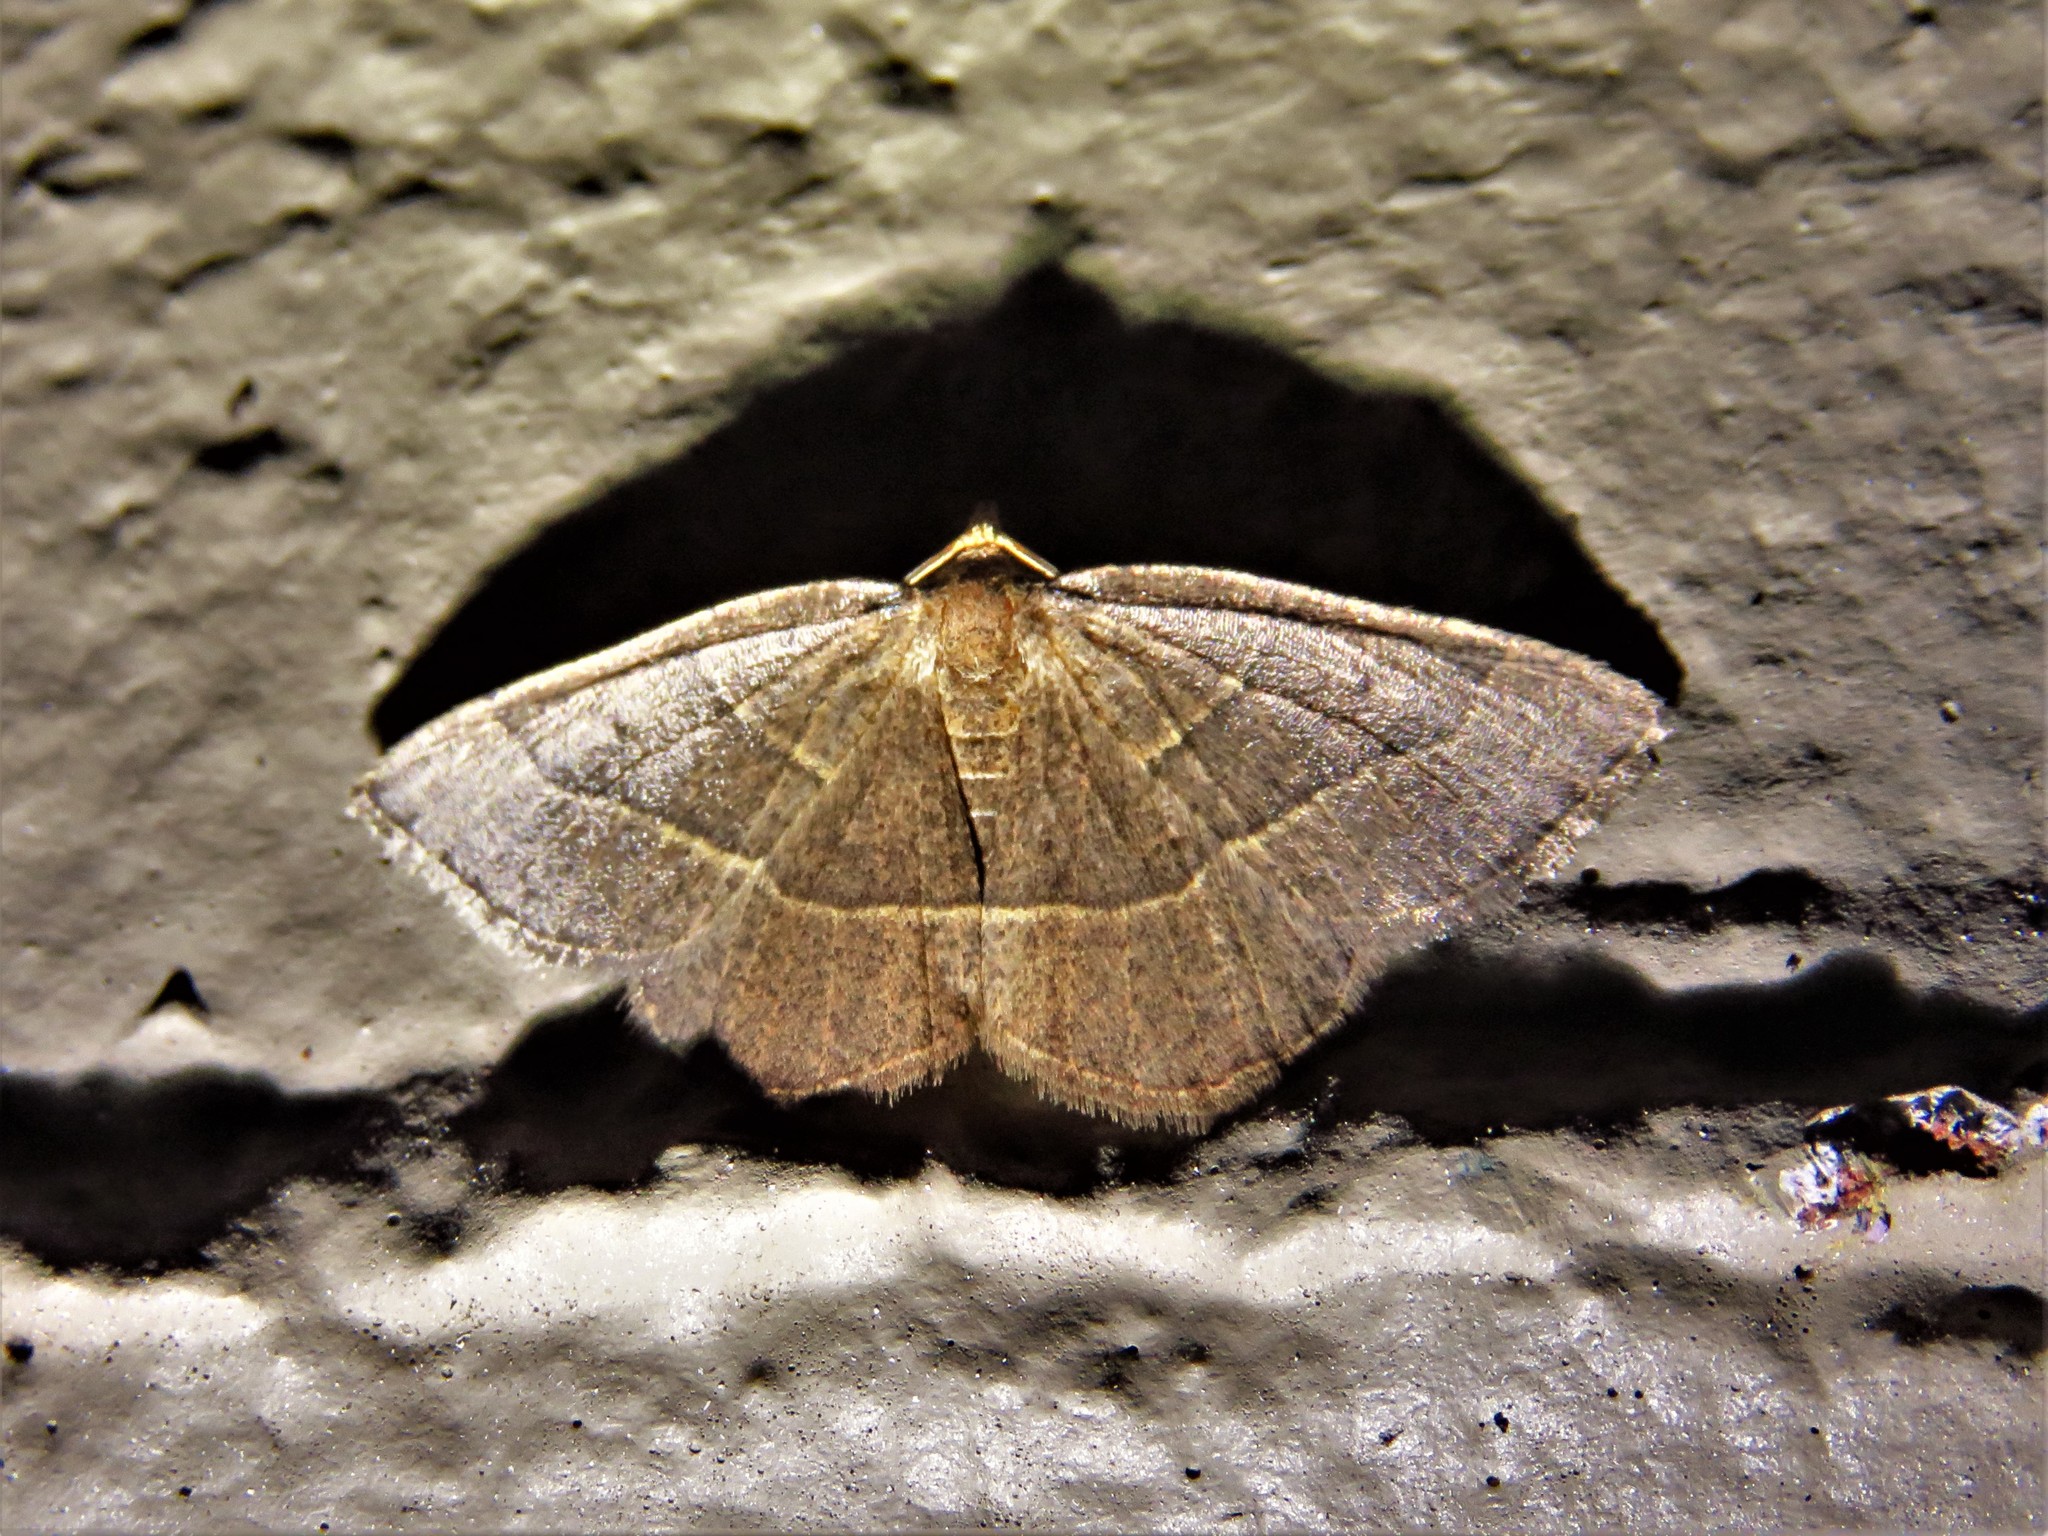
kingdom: Animalia
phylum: Arthropoda
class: Insecta
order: Lepidoptera
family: Geometridae
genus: Episemasia
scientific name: Episemasia cervinaria
